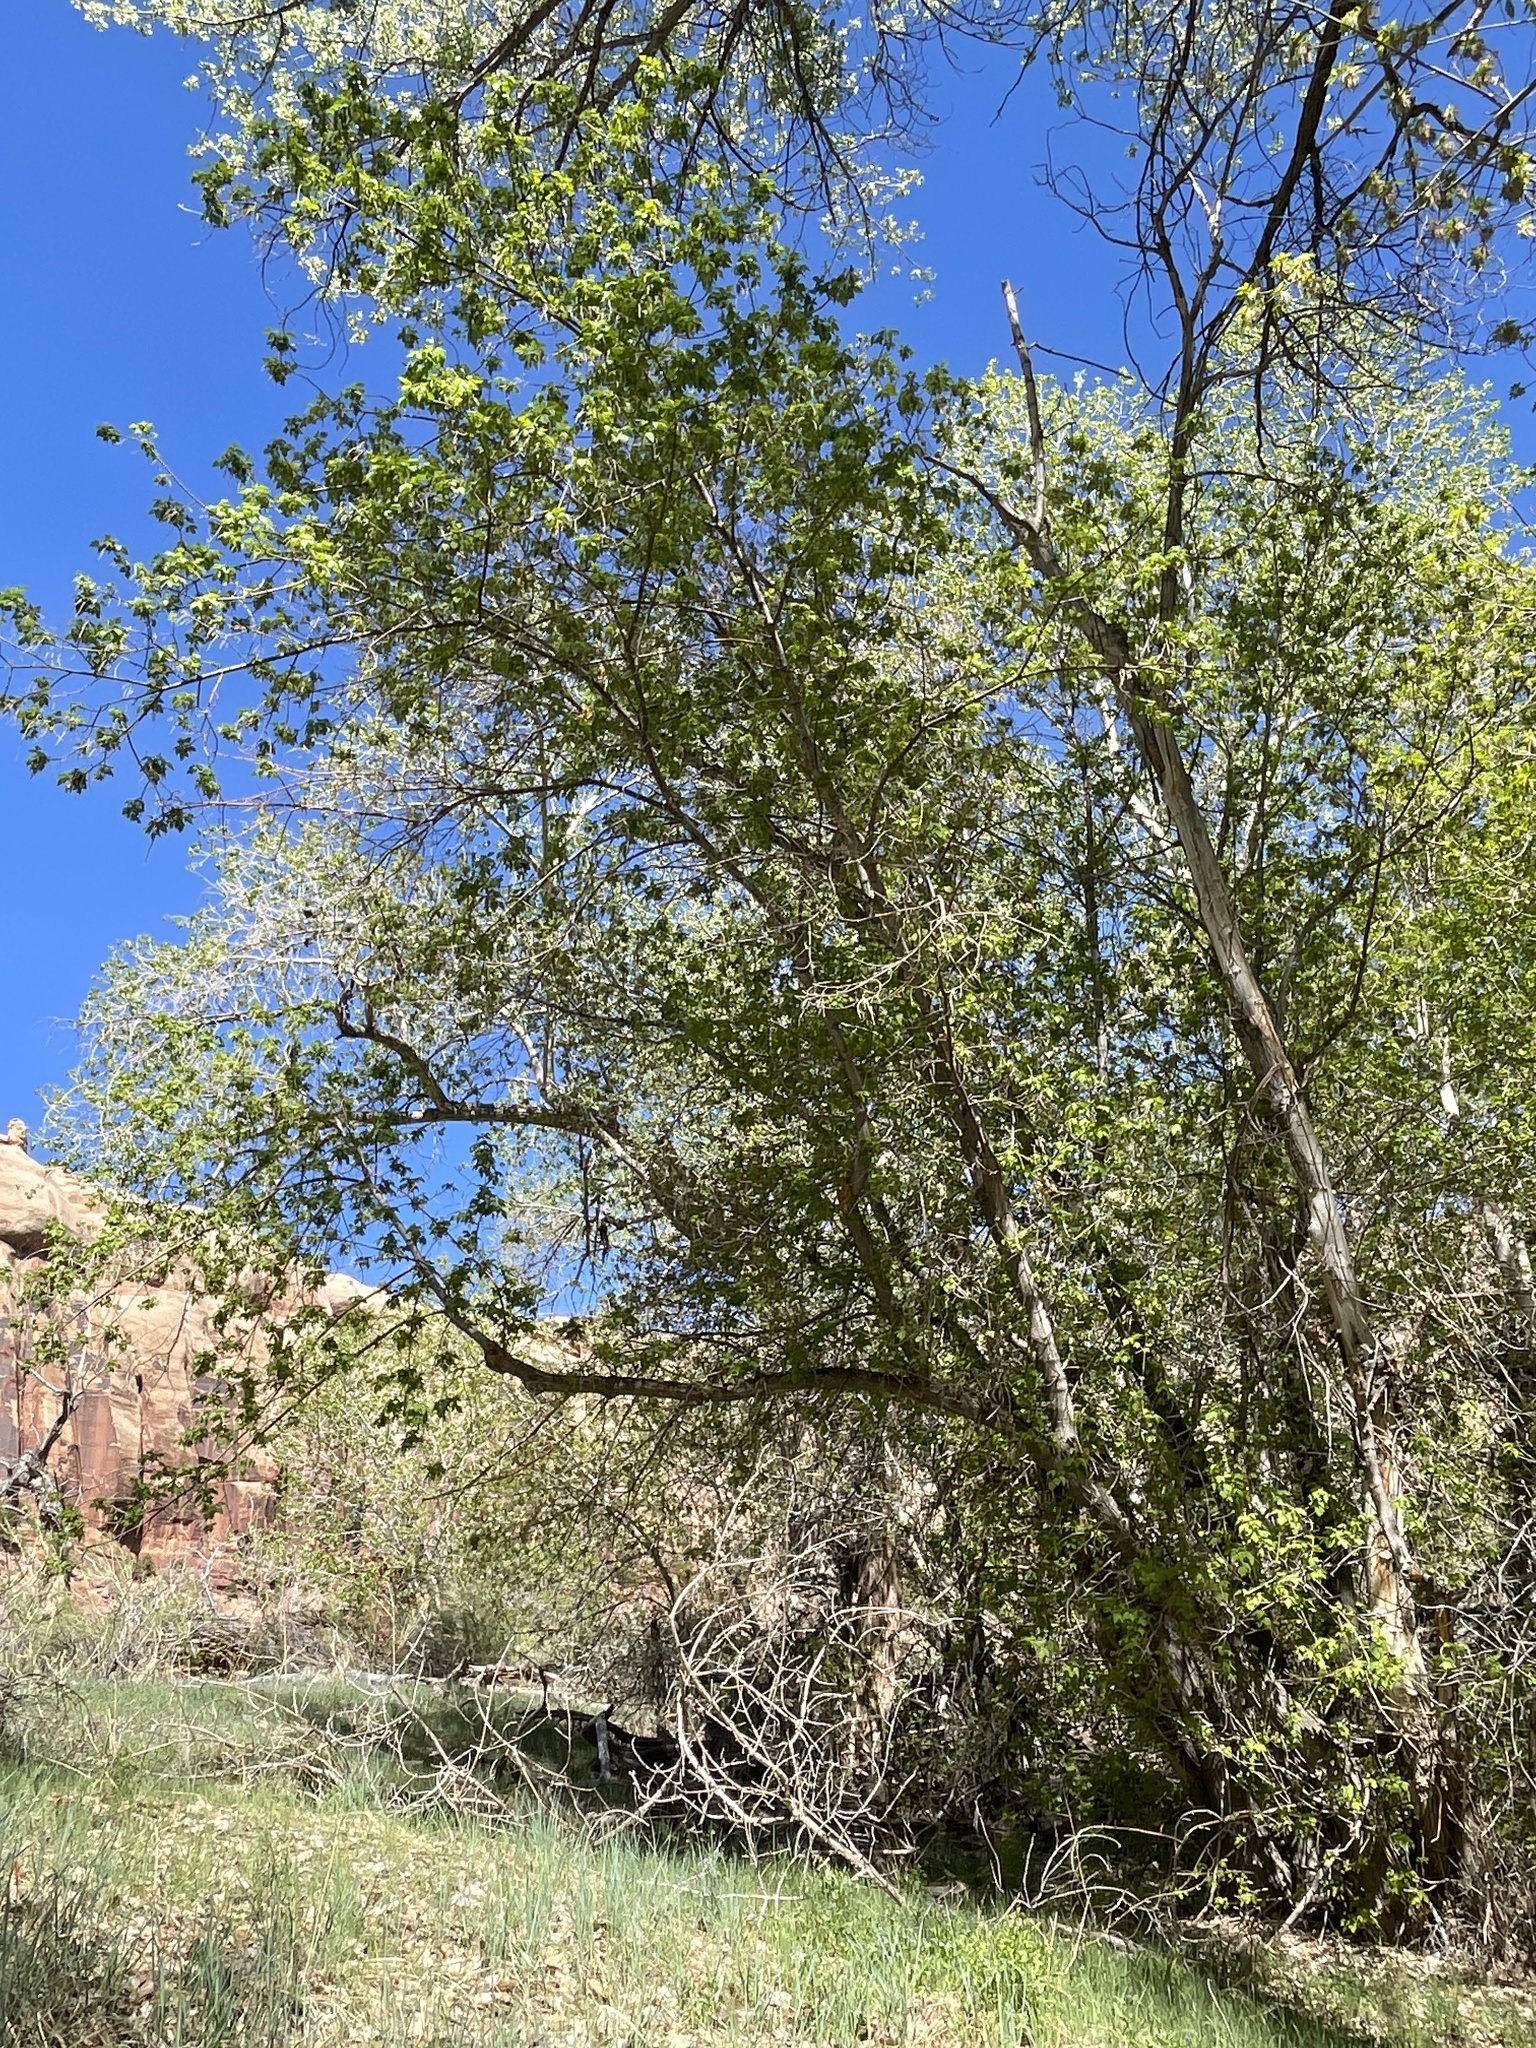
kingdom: Plantae
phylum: Tracheophyta
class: Magnoliopsida
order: Sapindales
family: Sapindaceae
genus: Acer
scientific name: Acer negundo
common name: Ashleaf maple
